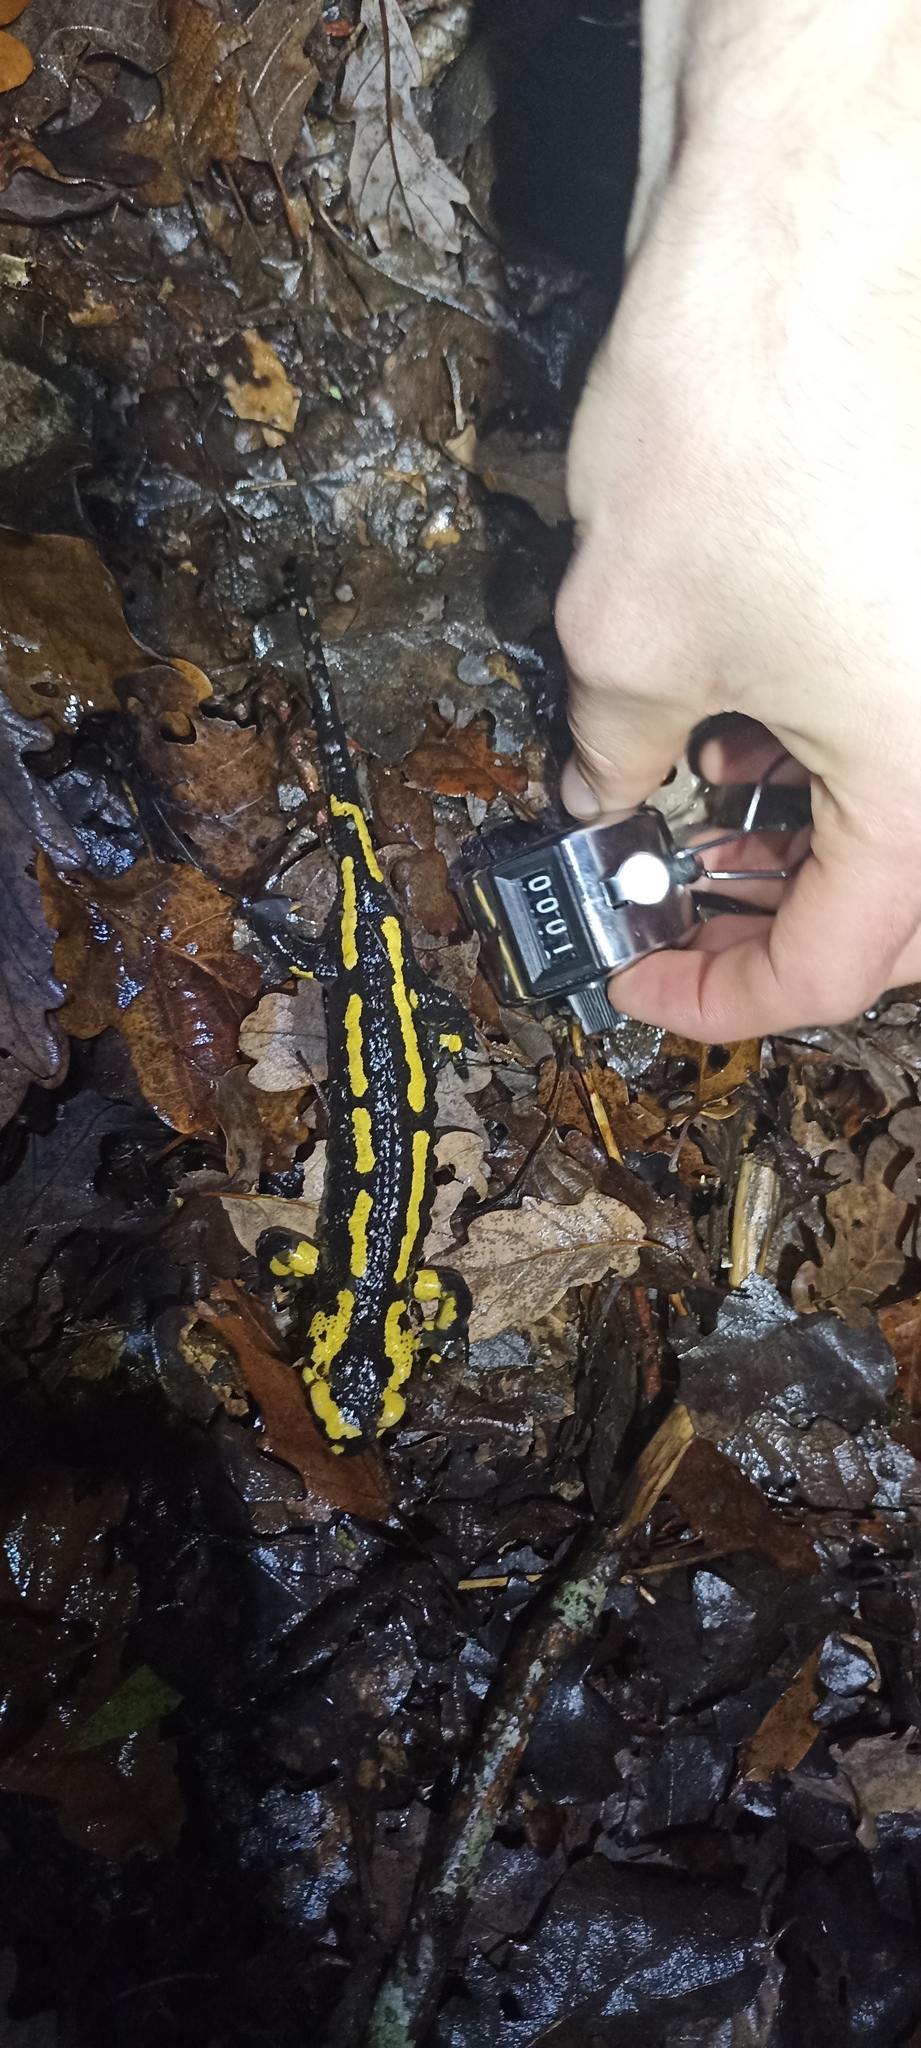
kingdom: Animalia
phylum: Chordata
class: Amphibia
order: Caudata
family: Salamandridae
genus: Salamandra
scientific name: Salamandra salamandra
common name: Fire salamander
